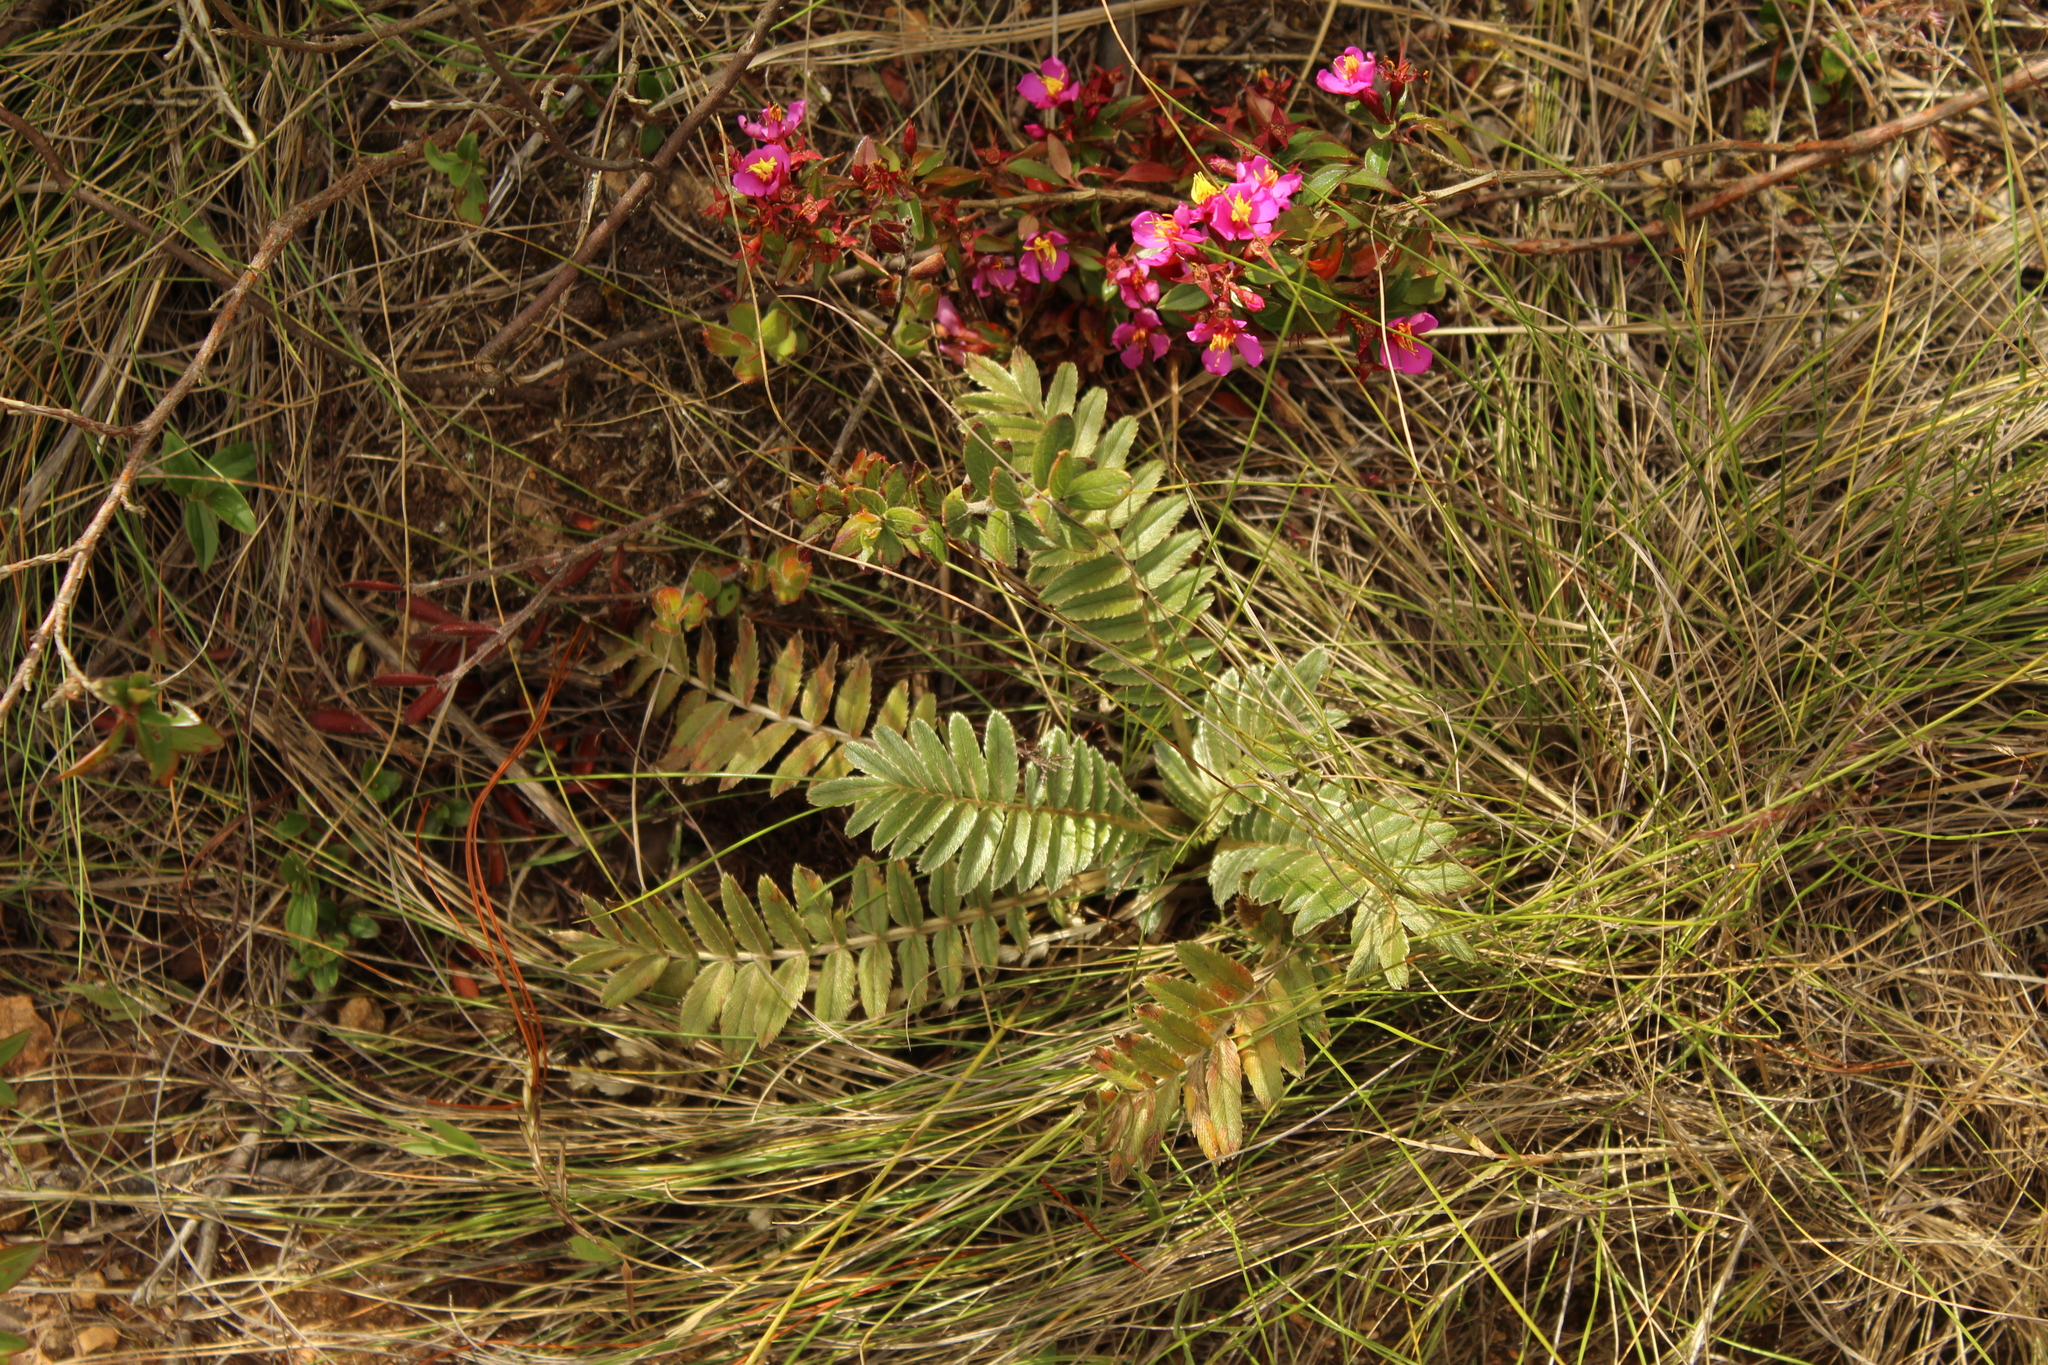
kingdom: Plantae
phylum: Tracheophyta
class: Magnoliopsida
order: Rosales
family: Rosaceae
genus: Acaena
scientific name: Acaena cylindristachya
